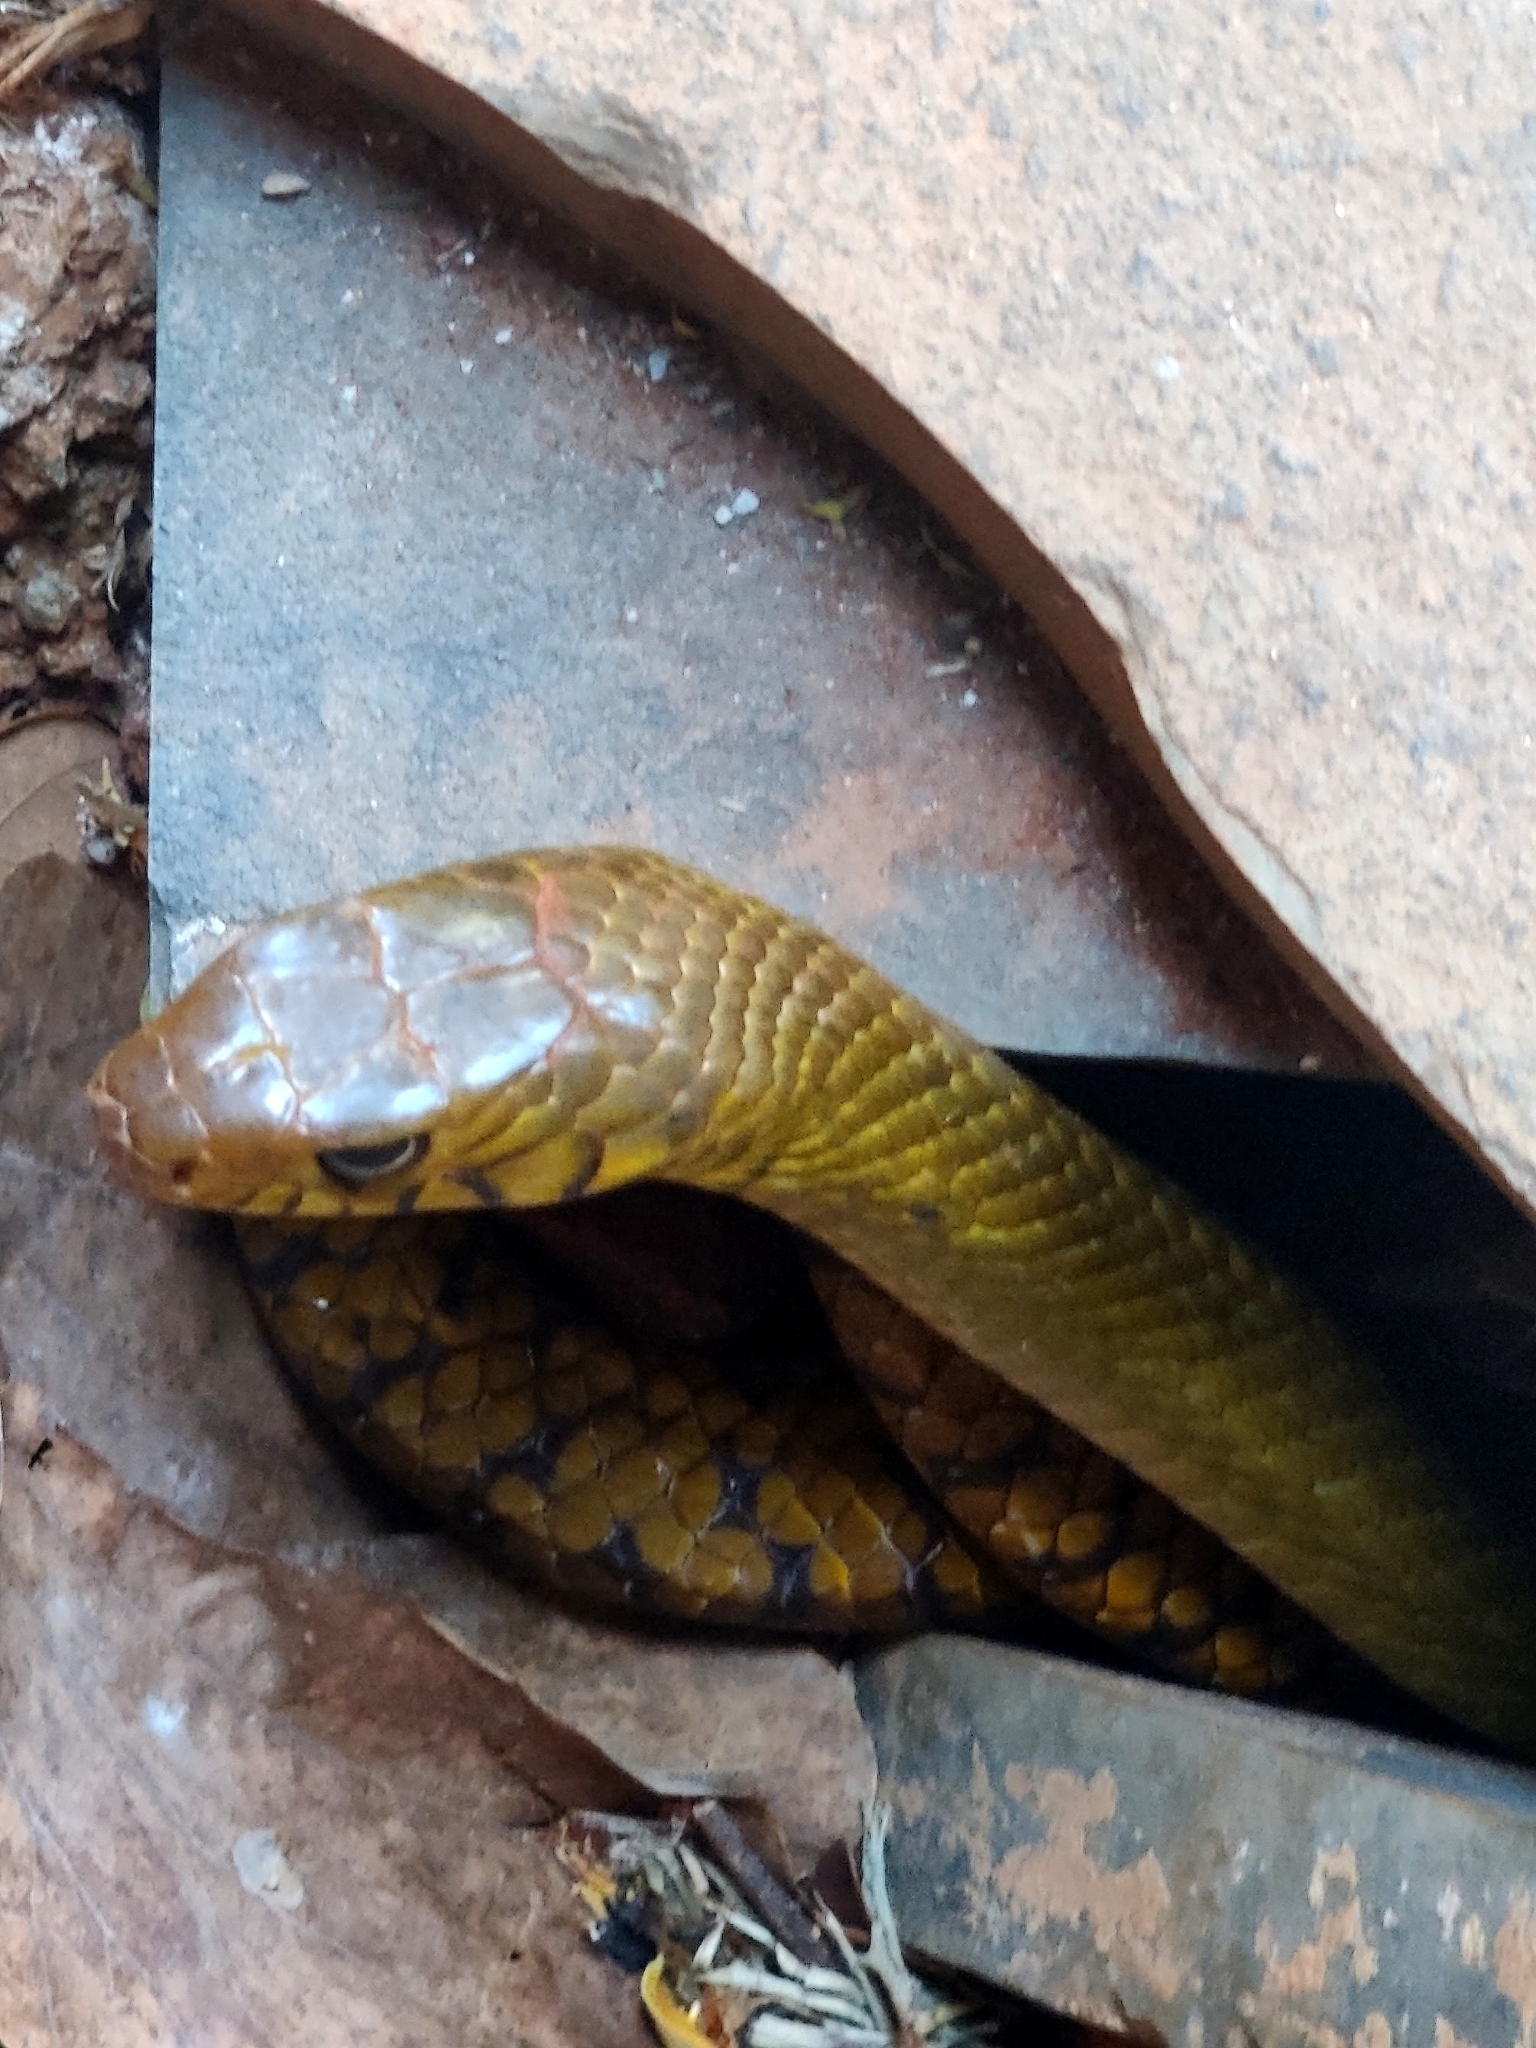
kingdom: Animalia
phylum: Chordata
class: Squamata
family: Colubridae
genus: Ptyas
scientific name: Ptyas mucosa
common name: Oriental ratsnake
